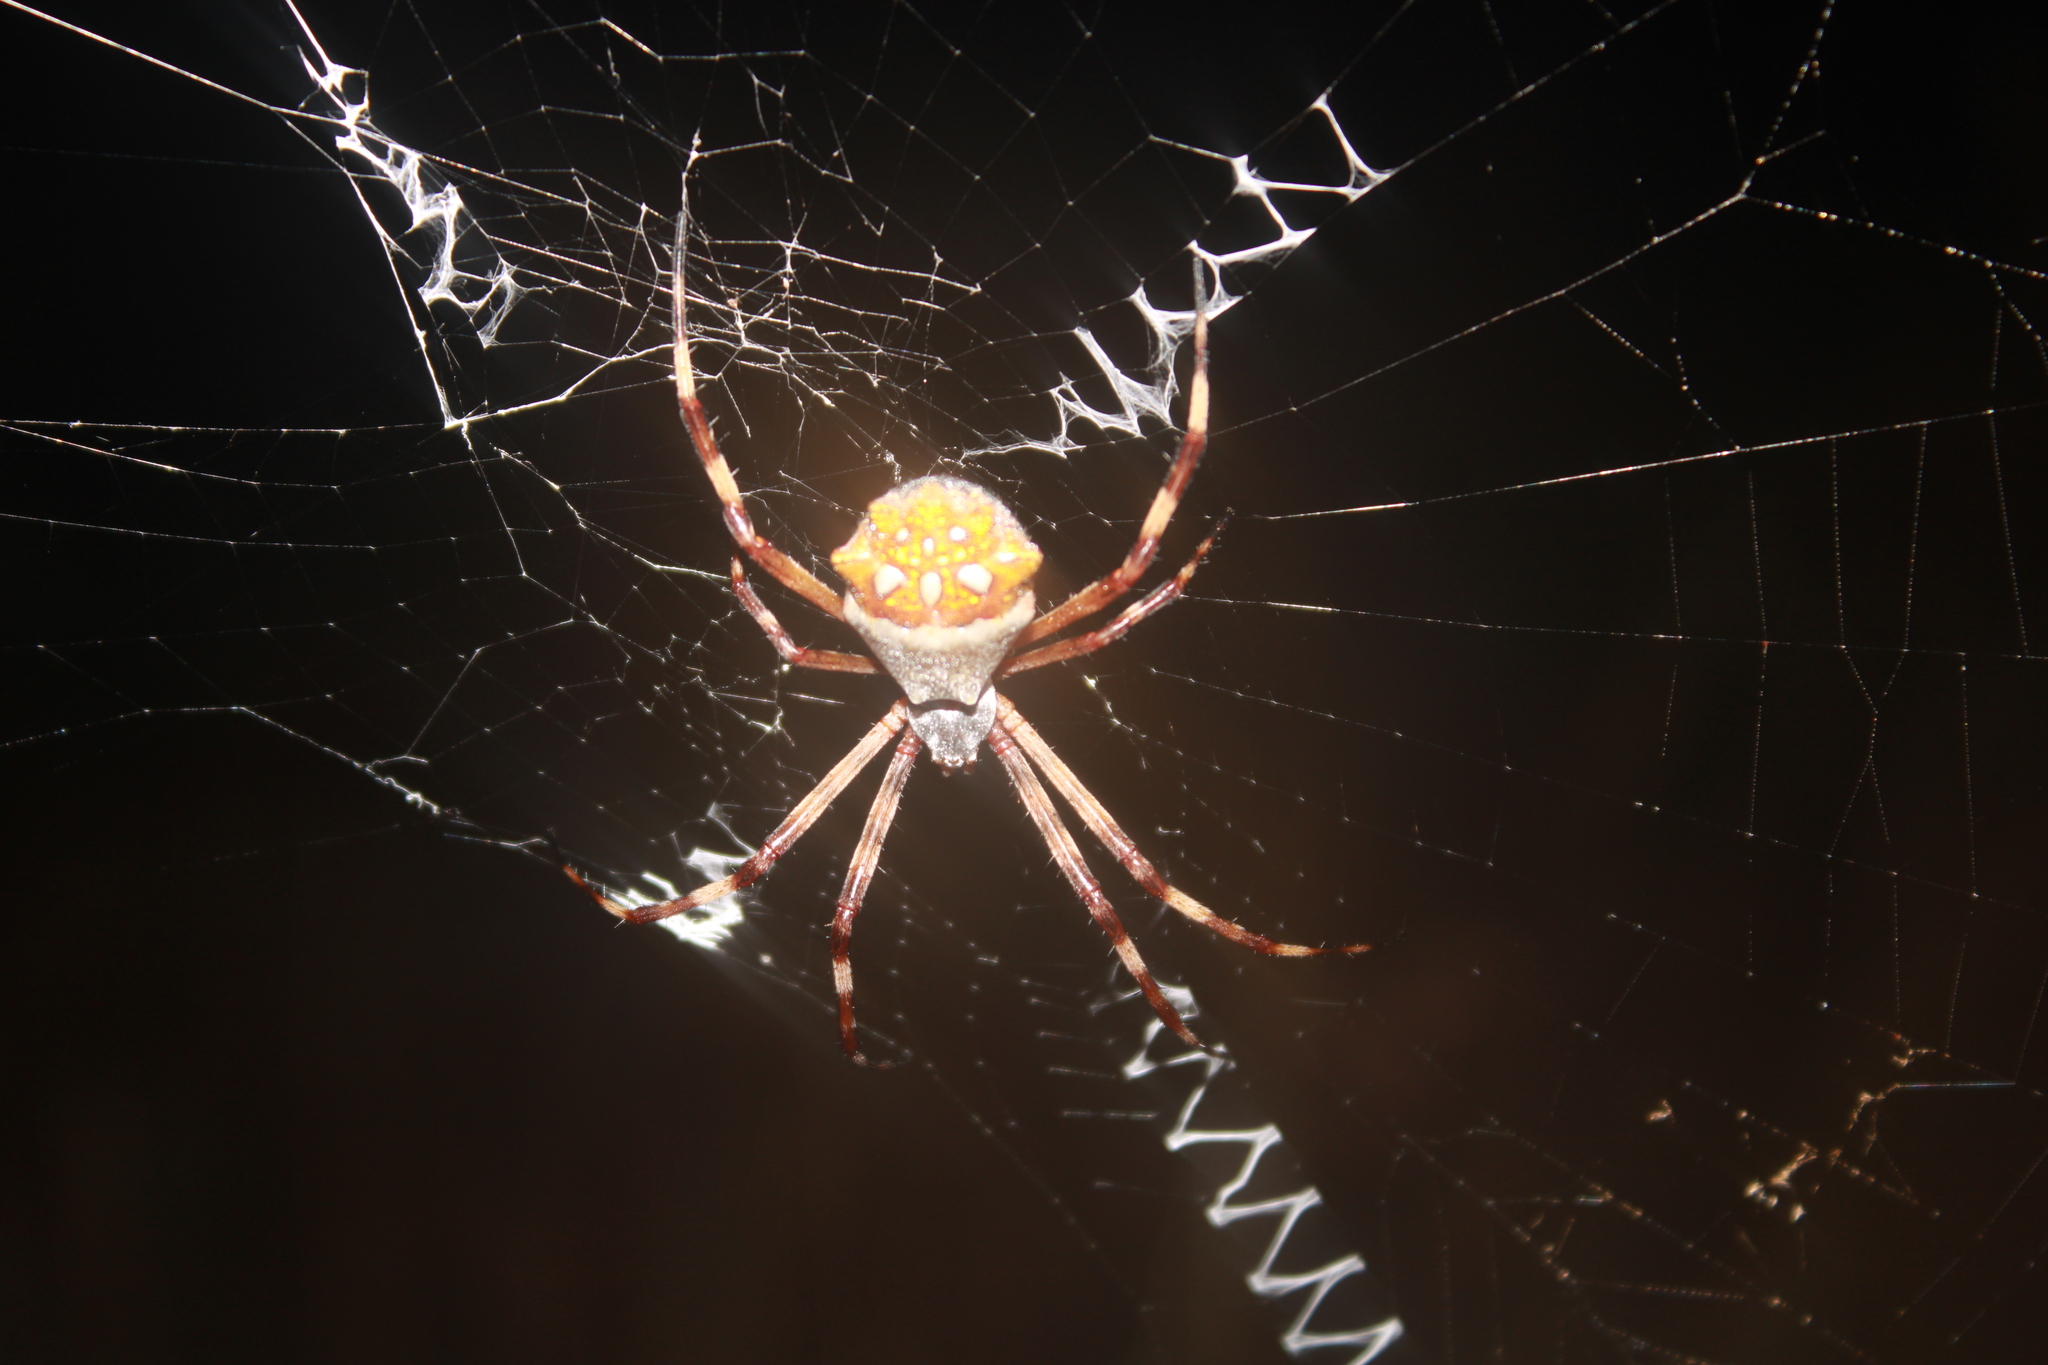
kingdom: Animalia
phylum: Arthropoda
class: Arachnida
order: Araneae
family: Araneidae
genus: Argiope
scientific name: Argiope argentata
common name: Orb weavers
